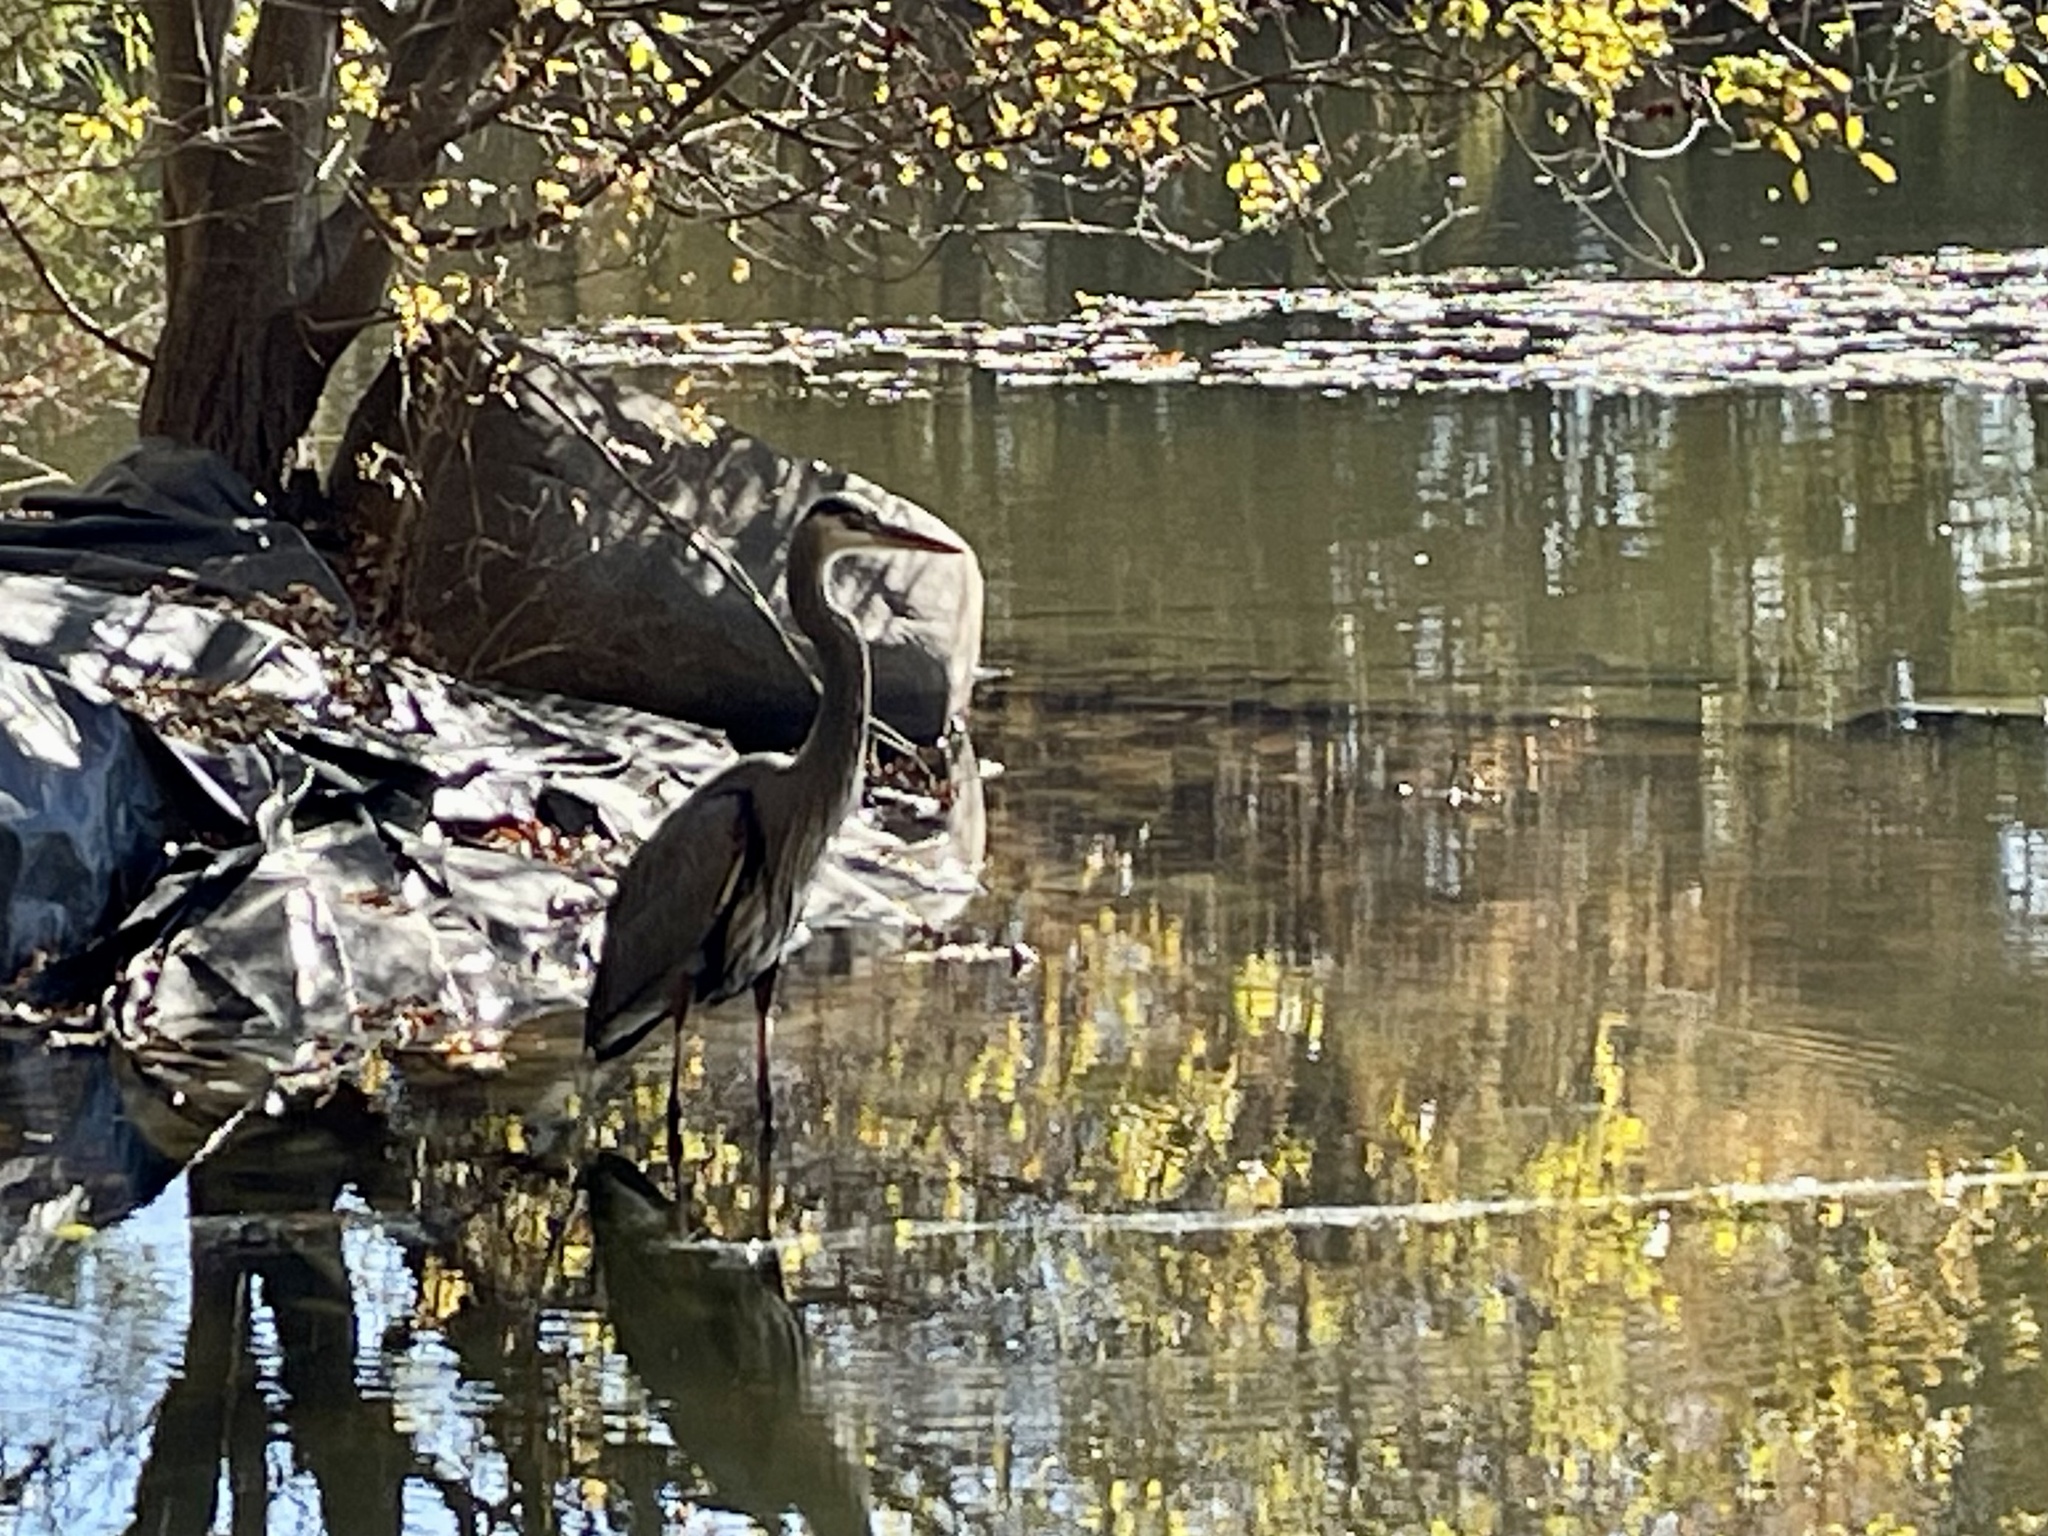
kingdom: Animalia
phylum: Chordata
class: Aves
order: Pelecaniformes
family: Ardeidae
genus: Ardea
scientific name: Ardea herodias
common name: Great blue heron
